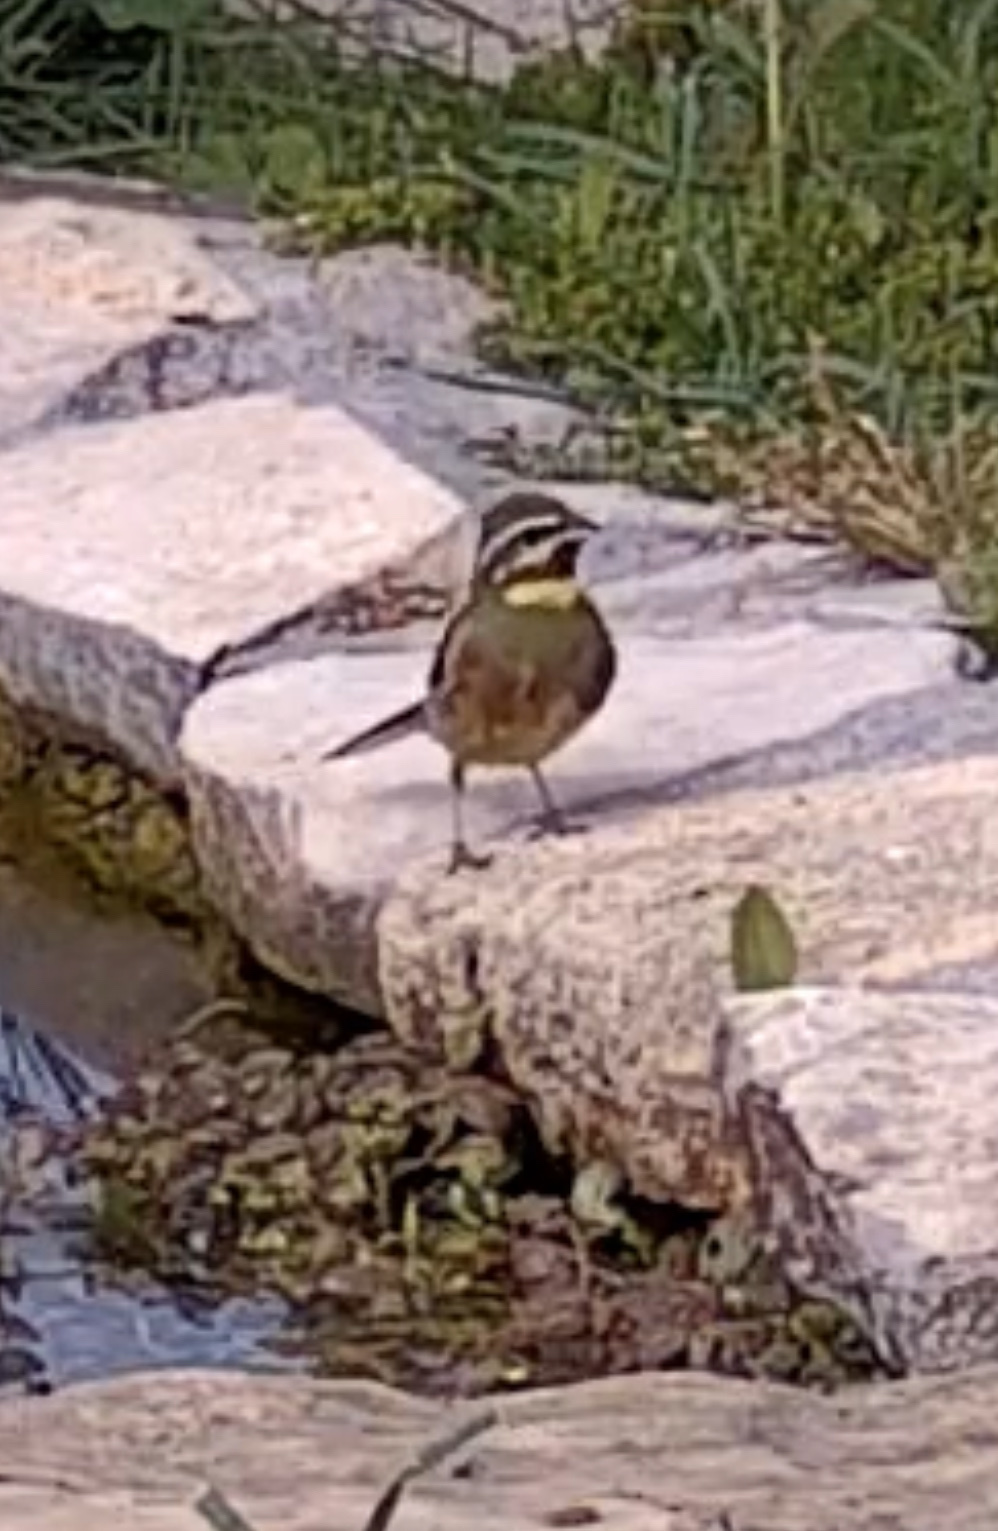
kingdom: Animalia
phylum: Chordata
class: Aves
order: Passeriformes
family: Emberizidae
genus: Emberiza
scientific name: Emberiza cirlus
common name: Cirl bunting
